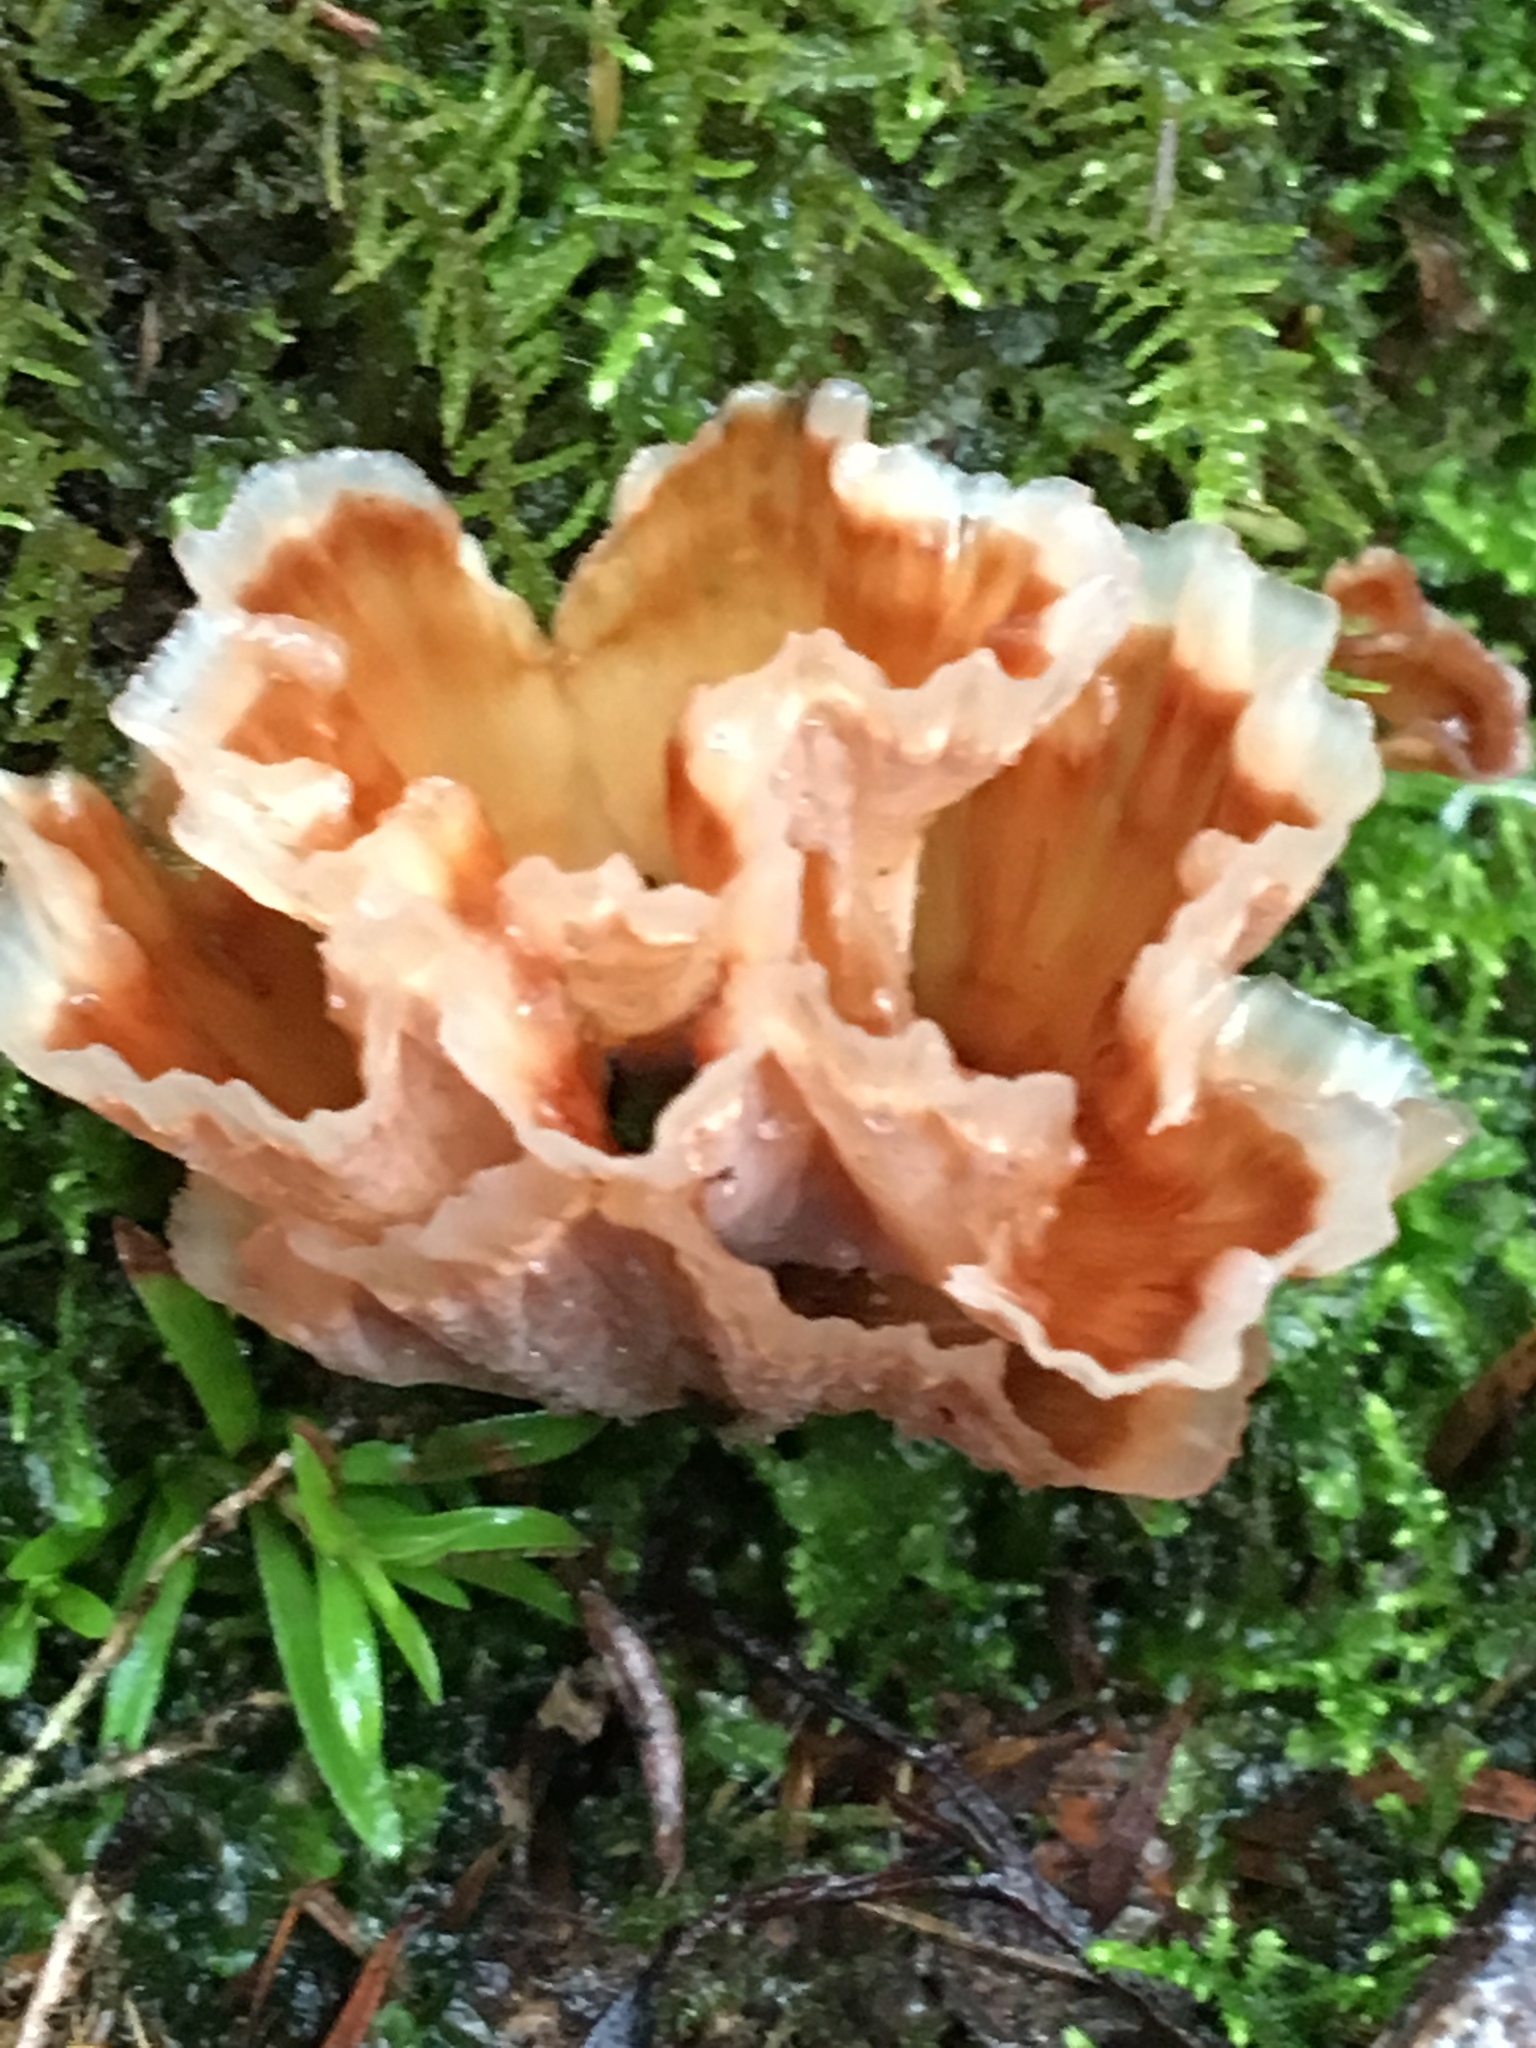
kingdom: Fungi
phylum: Basidiomycota
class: Agaricomycetes
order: Polyporales
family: Podoscyphaceae
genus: Podoscypha
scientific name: Podoscypha petalodes
